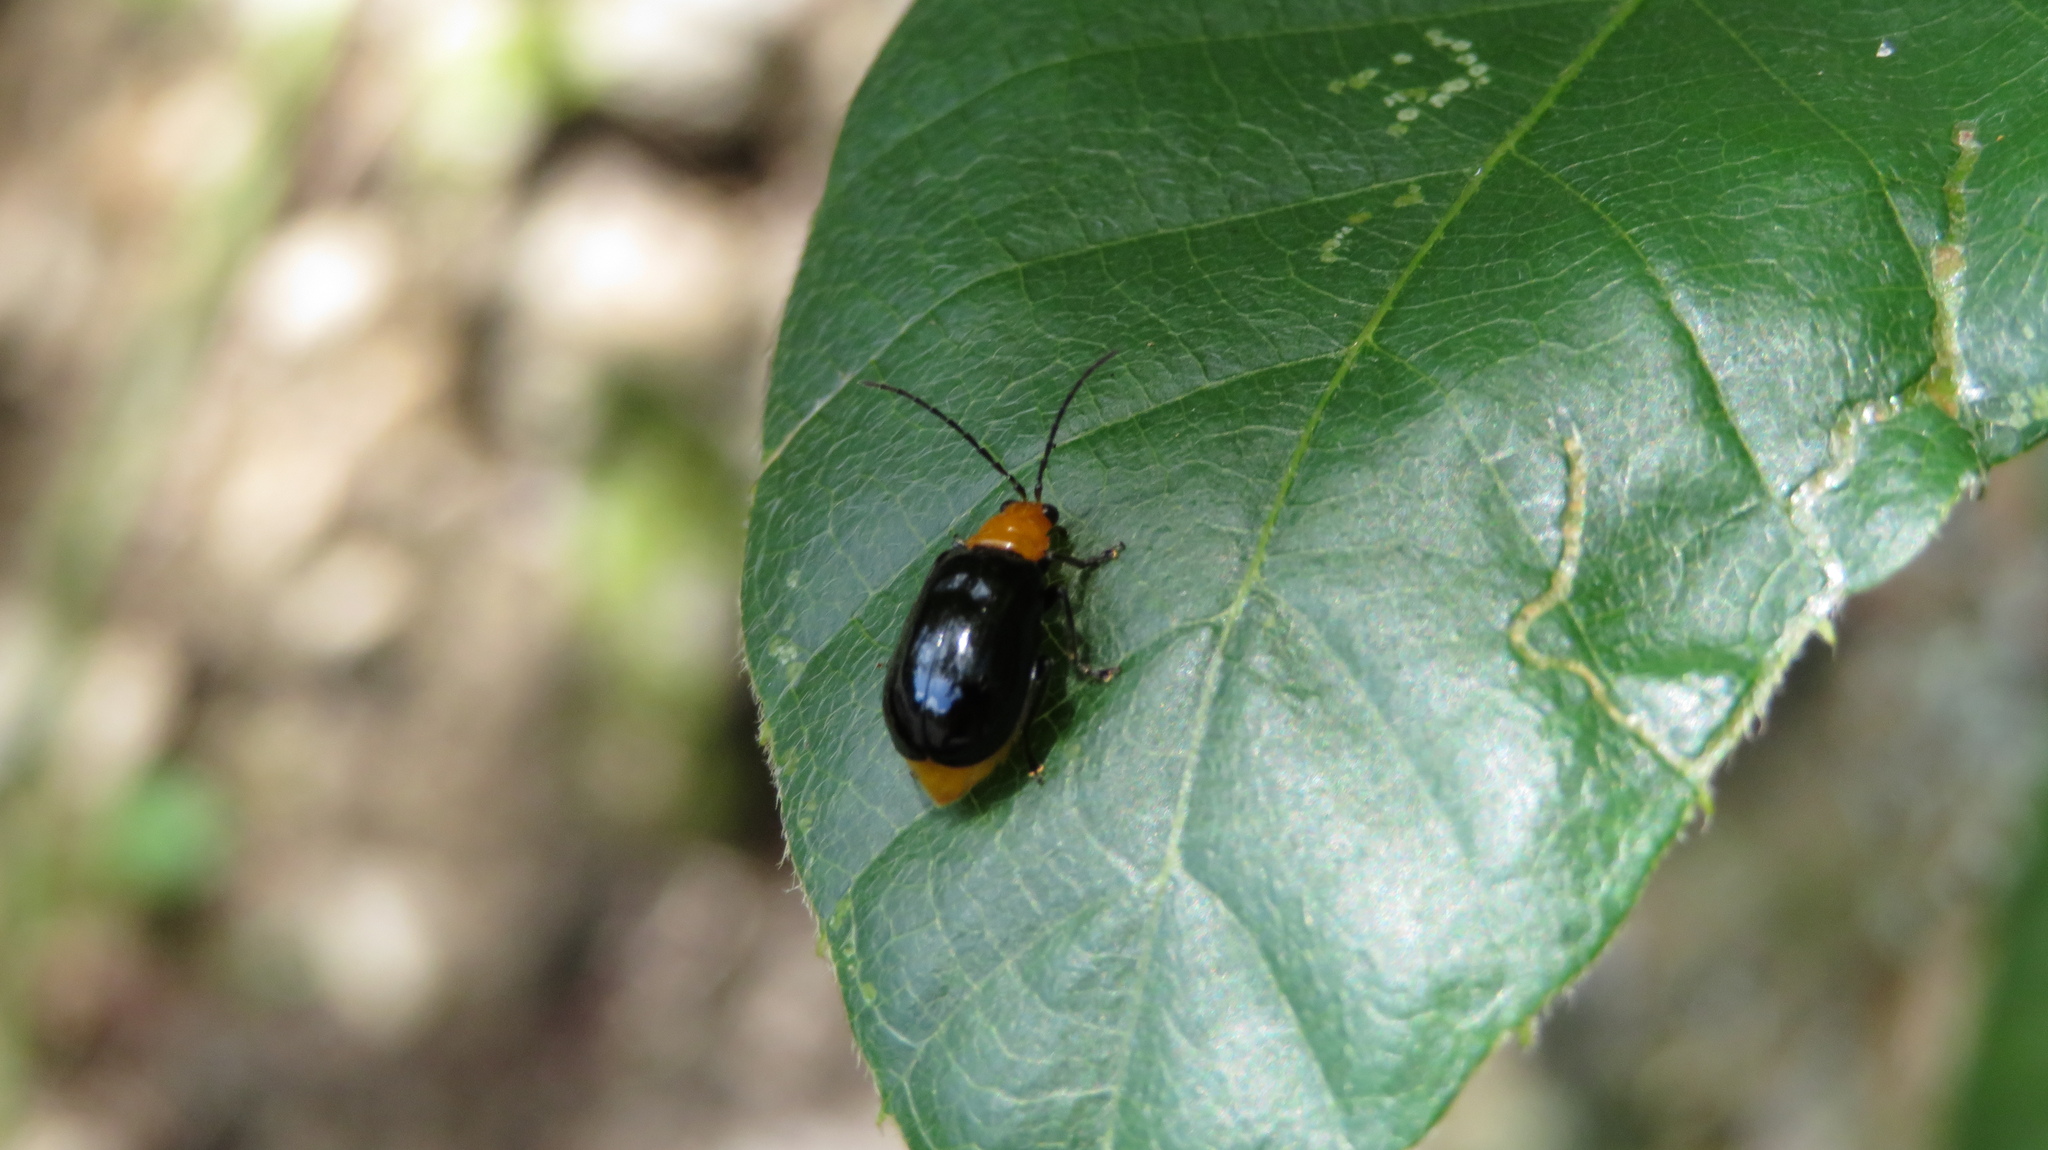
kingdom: Animalia
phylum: Arthropoda
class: Insecta
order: Coleoptera
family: Chrysomelidae
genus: Aulacophora
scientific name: Aulacophora nigripennis
